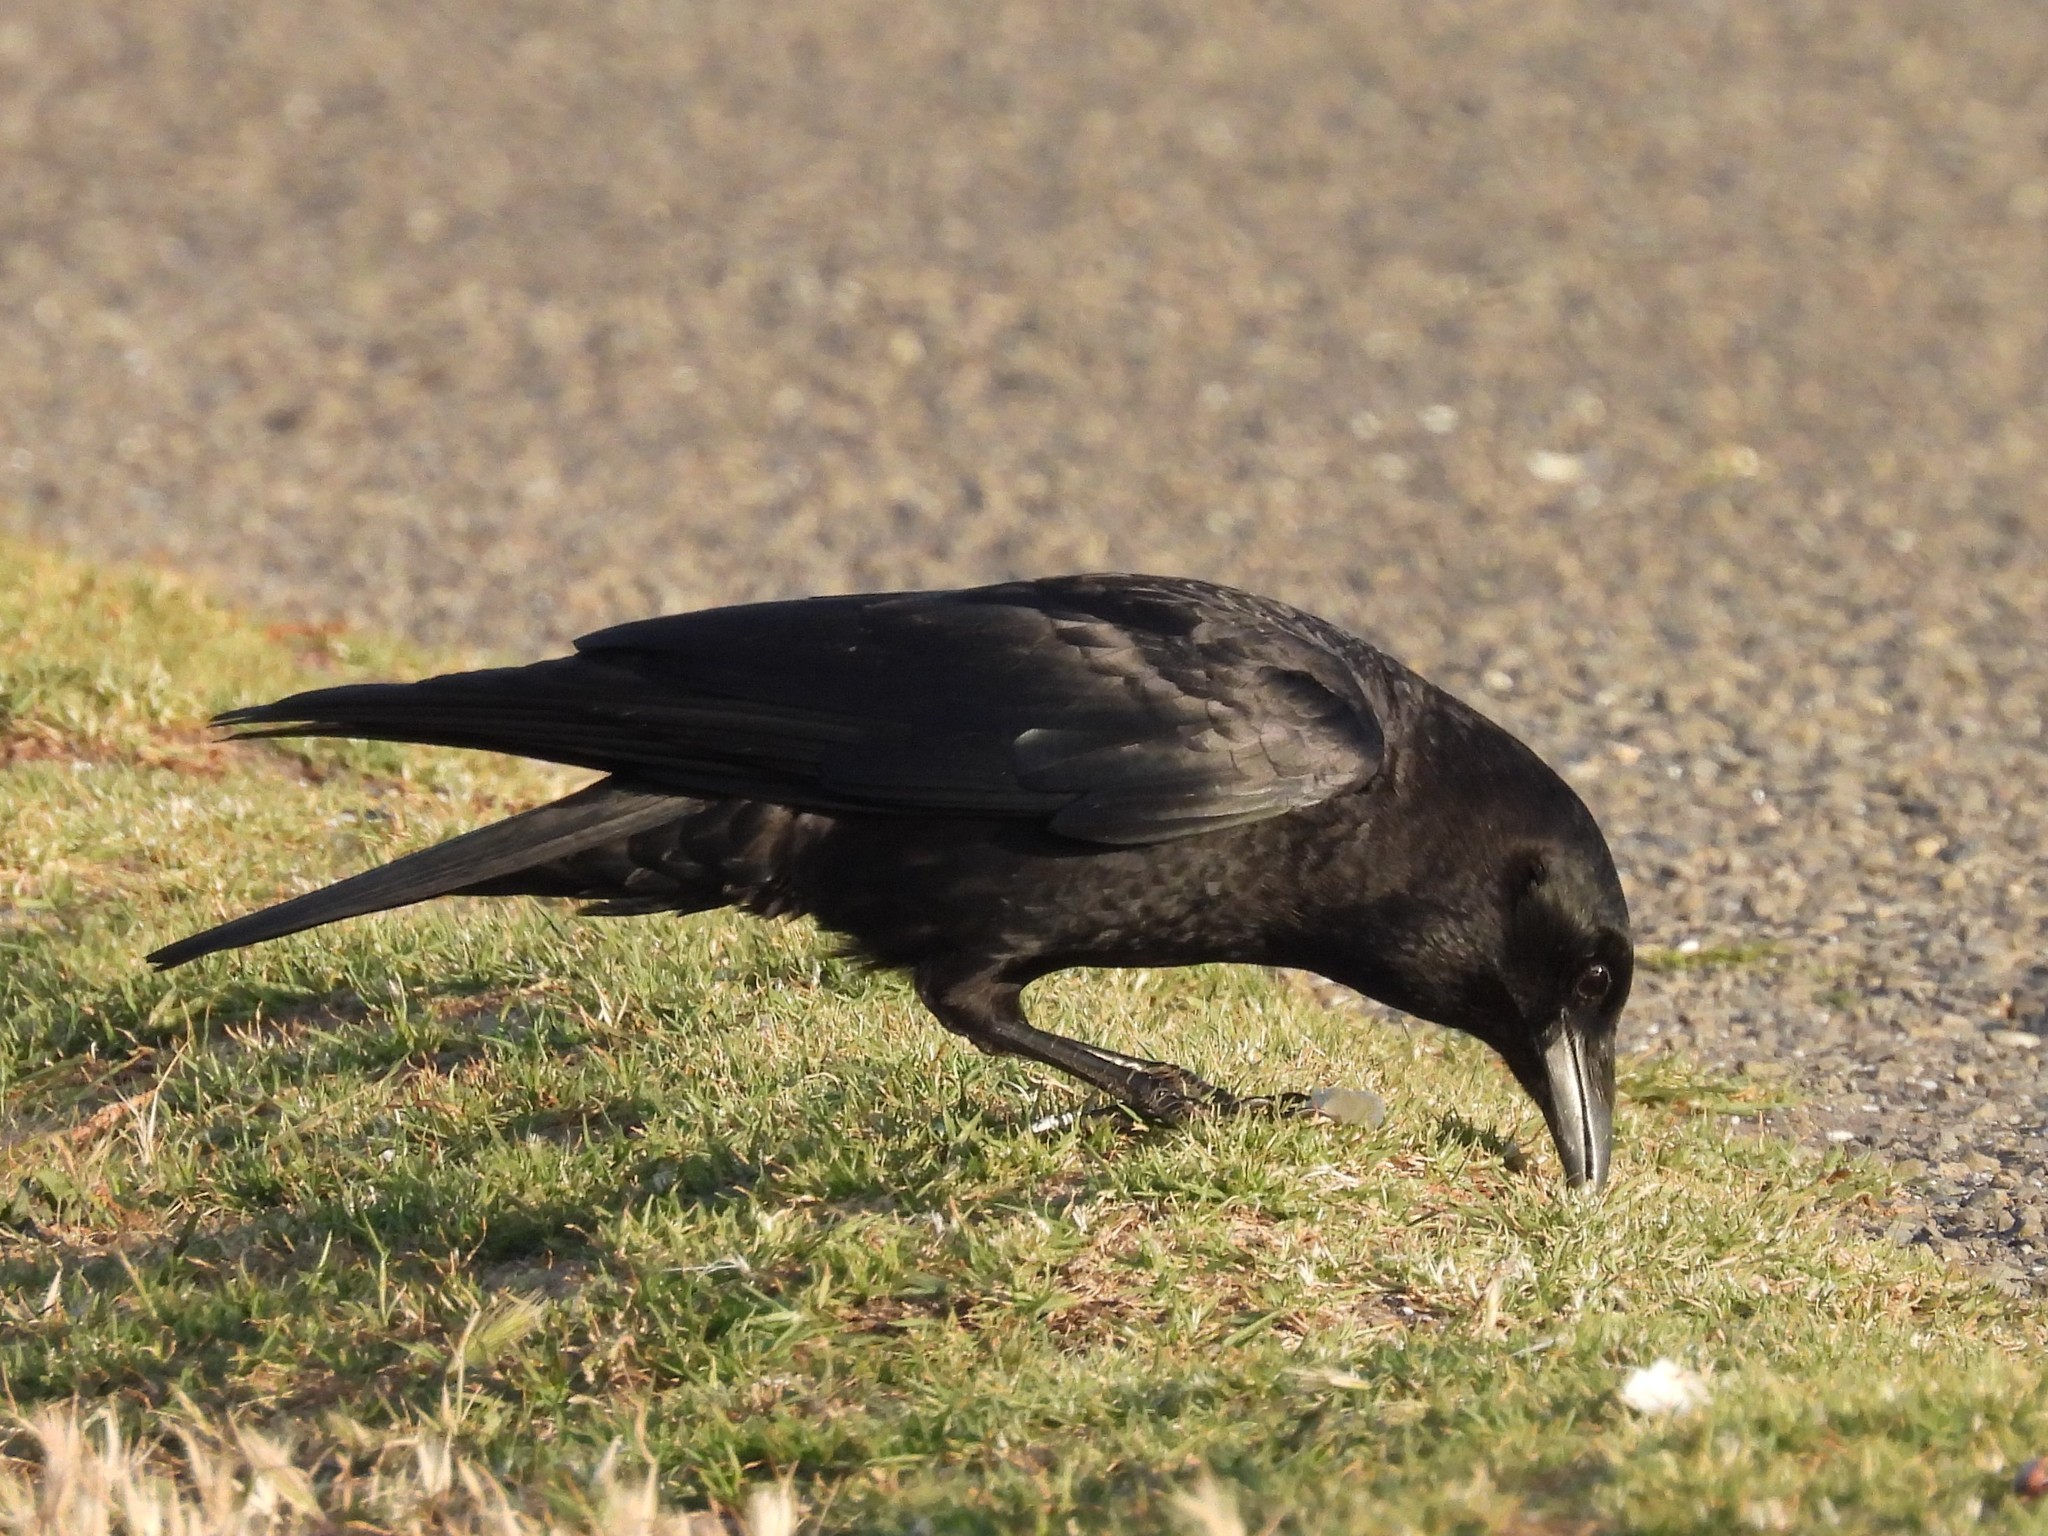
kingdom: Animalia
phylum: Chordata
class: Aves
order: Passeriformes
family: Corvidae
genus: Corvus
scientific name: Corvus brachyrhynchos
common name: American crow
